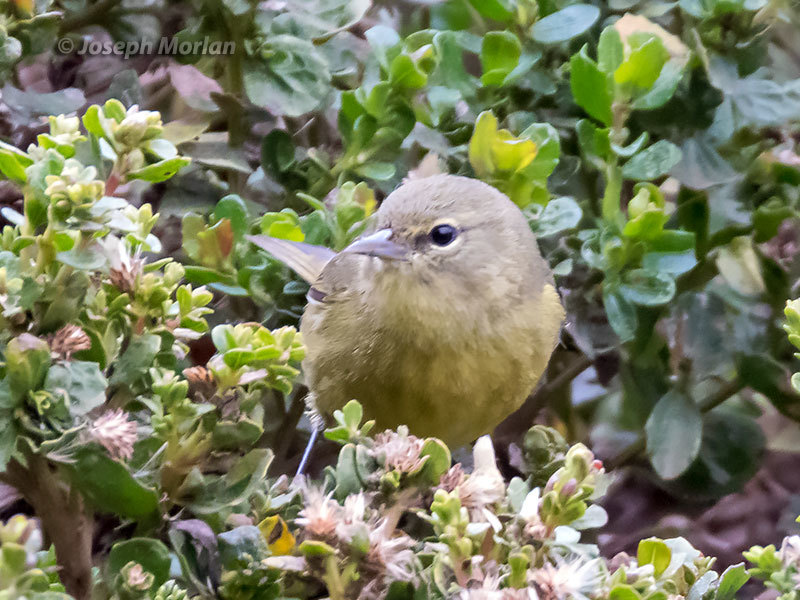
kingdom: Animalia
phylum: Chordata
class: Aves
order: Passeriformes
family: Parulidae
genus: Leiothlypis
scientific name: Leiothlypis celata
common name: Orange-crowned warbler
